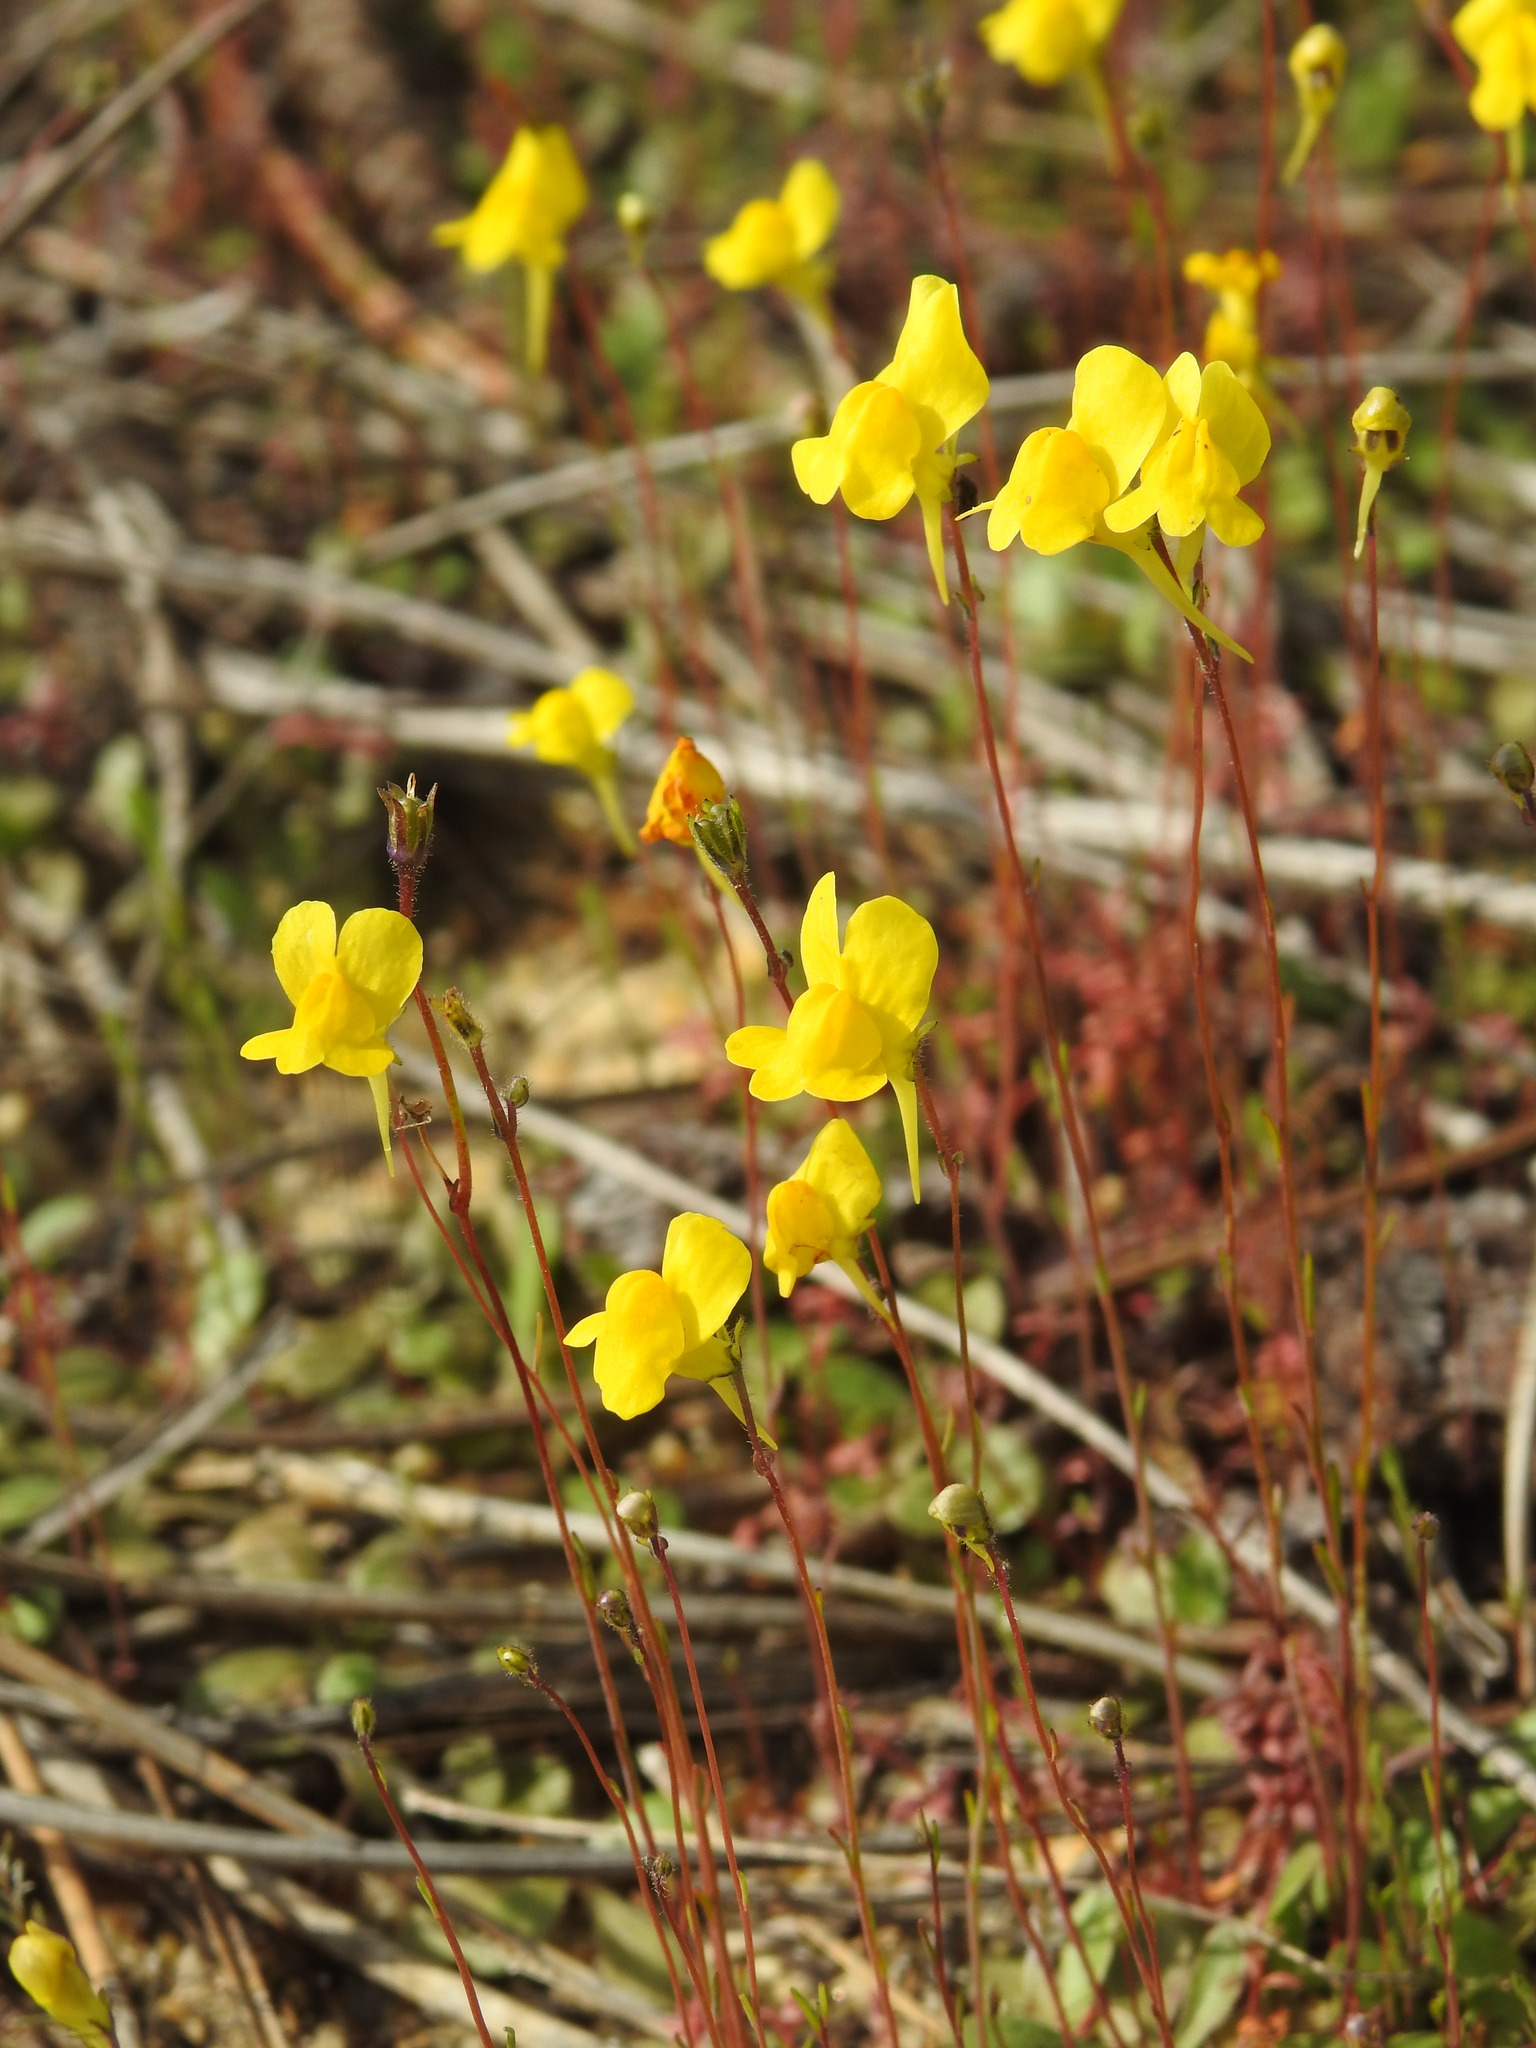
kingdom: Plantae
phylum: Tracheophyta
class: Magnoliopsida
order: Lamiales
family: Plantaginaceae
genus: Linaria
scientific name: Linaria spartea
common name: Ballast toadflax
